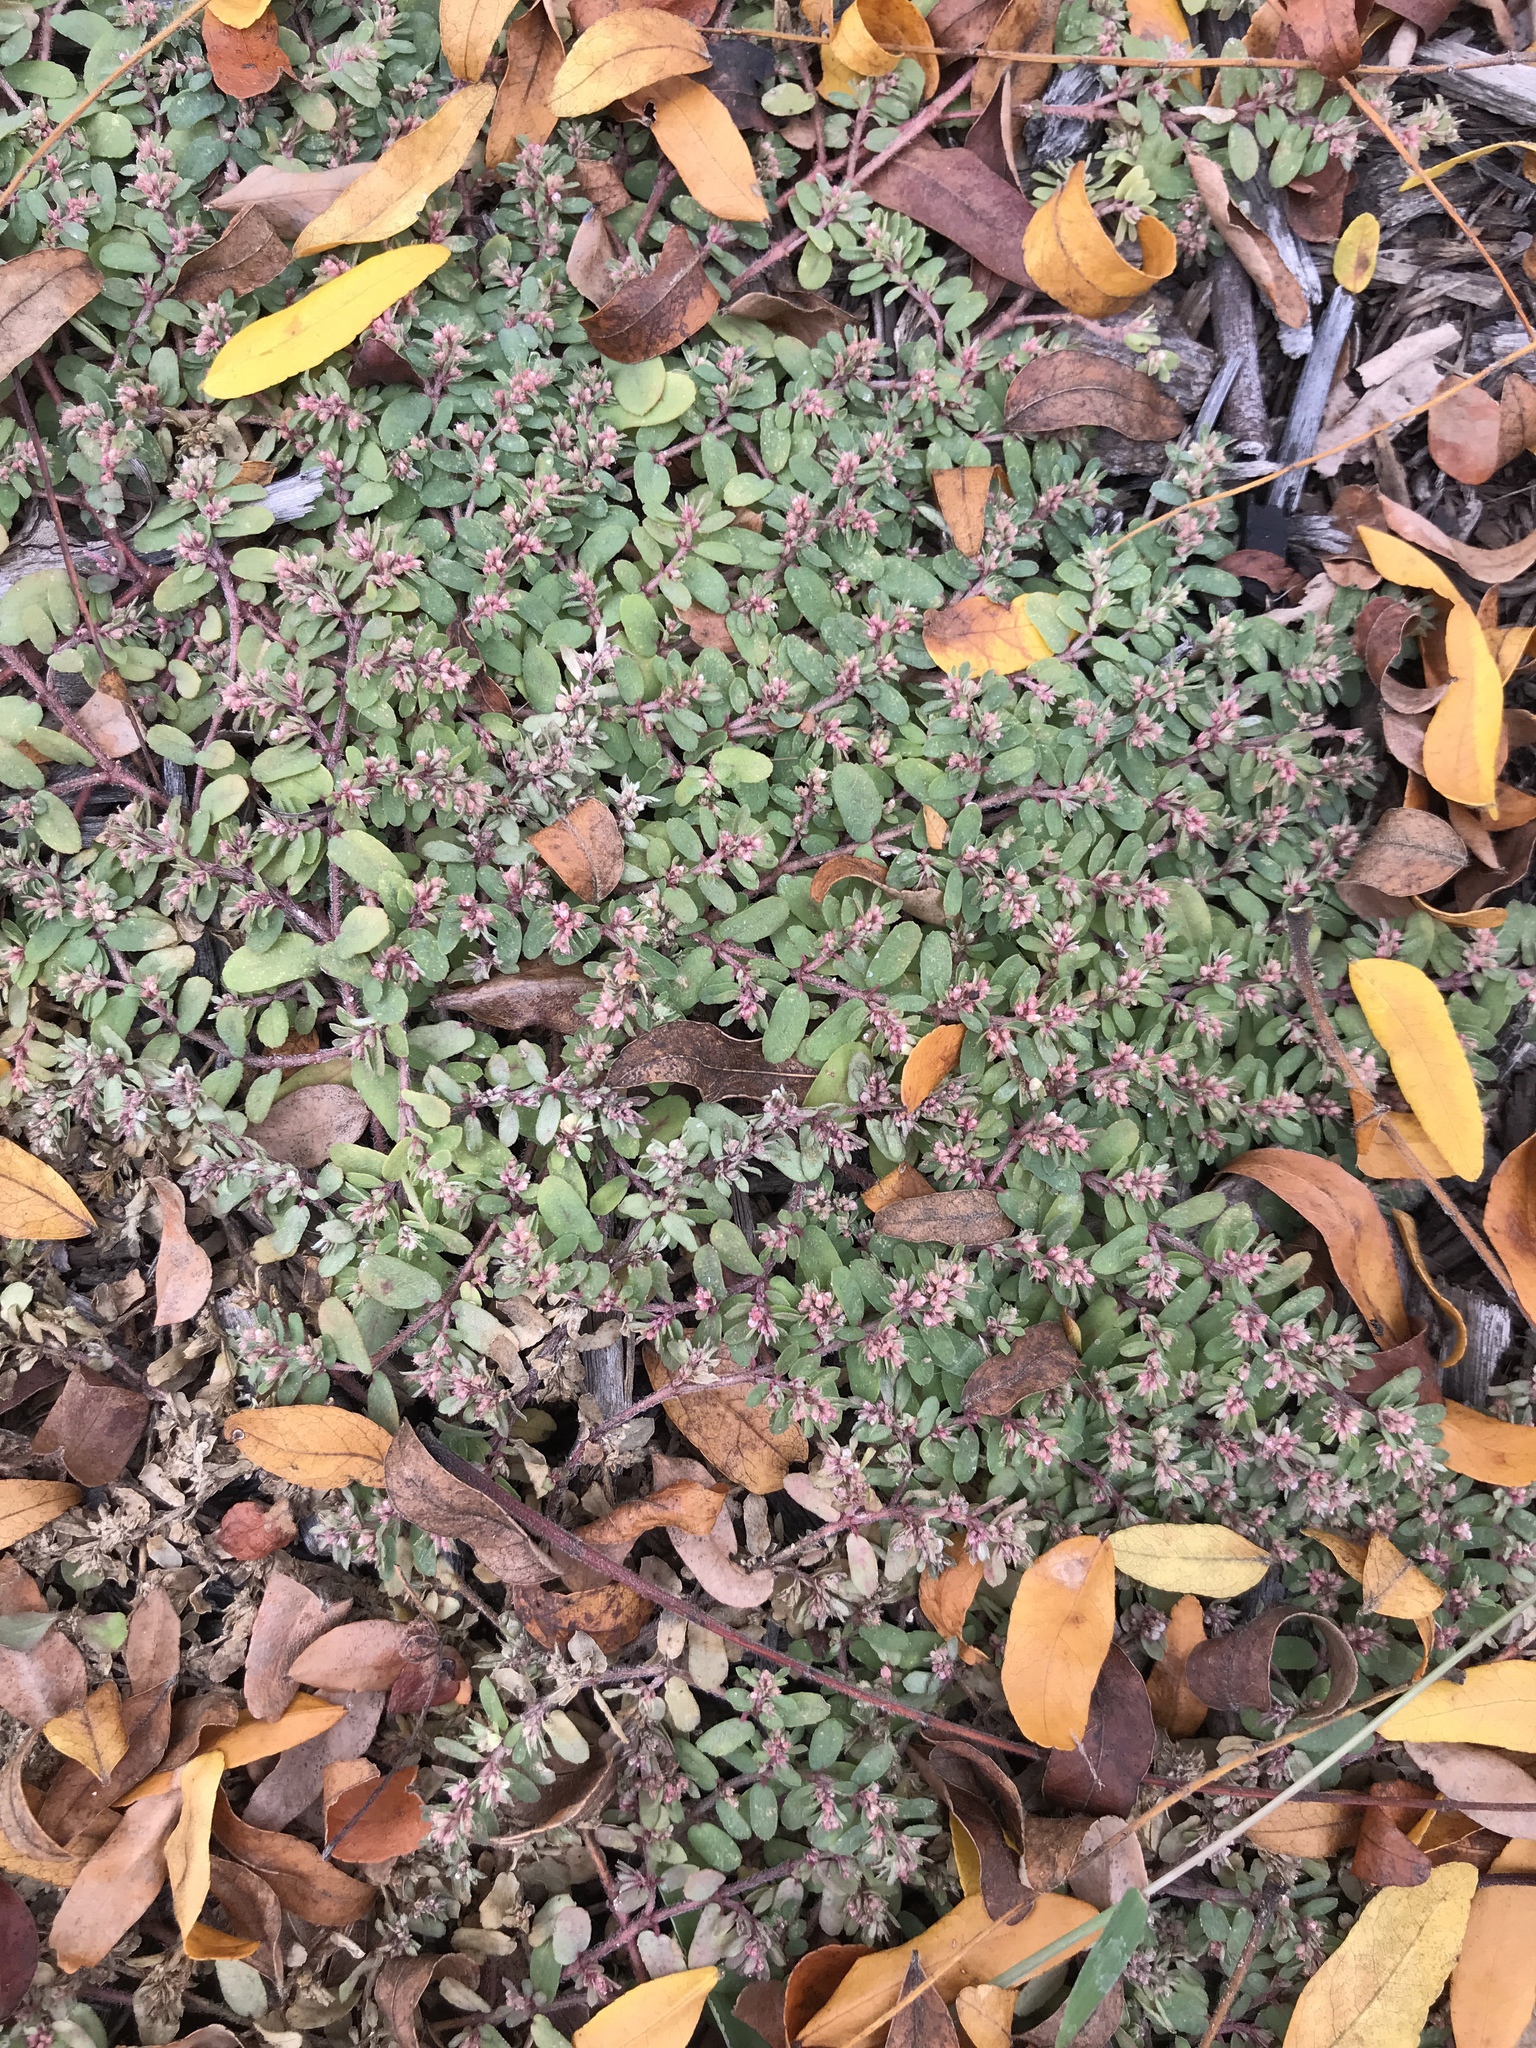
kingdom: Plantae
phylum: Tracheophyta
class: Magnoliopsida
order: Malpighiales
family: Euphorbiaceae
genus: Euphorbia
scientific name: Euphorbia maculata
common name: Spotted spurge
